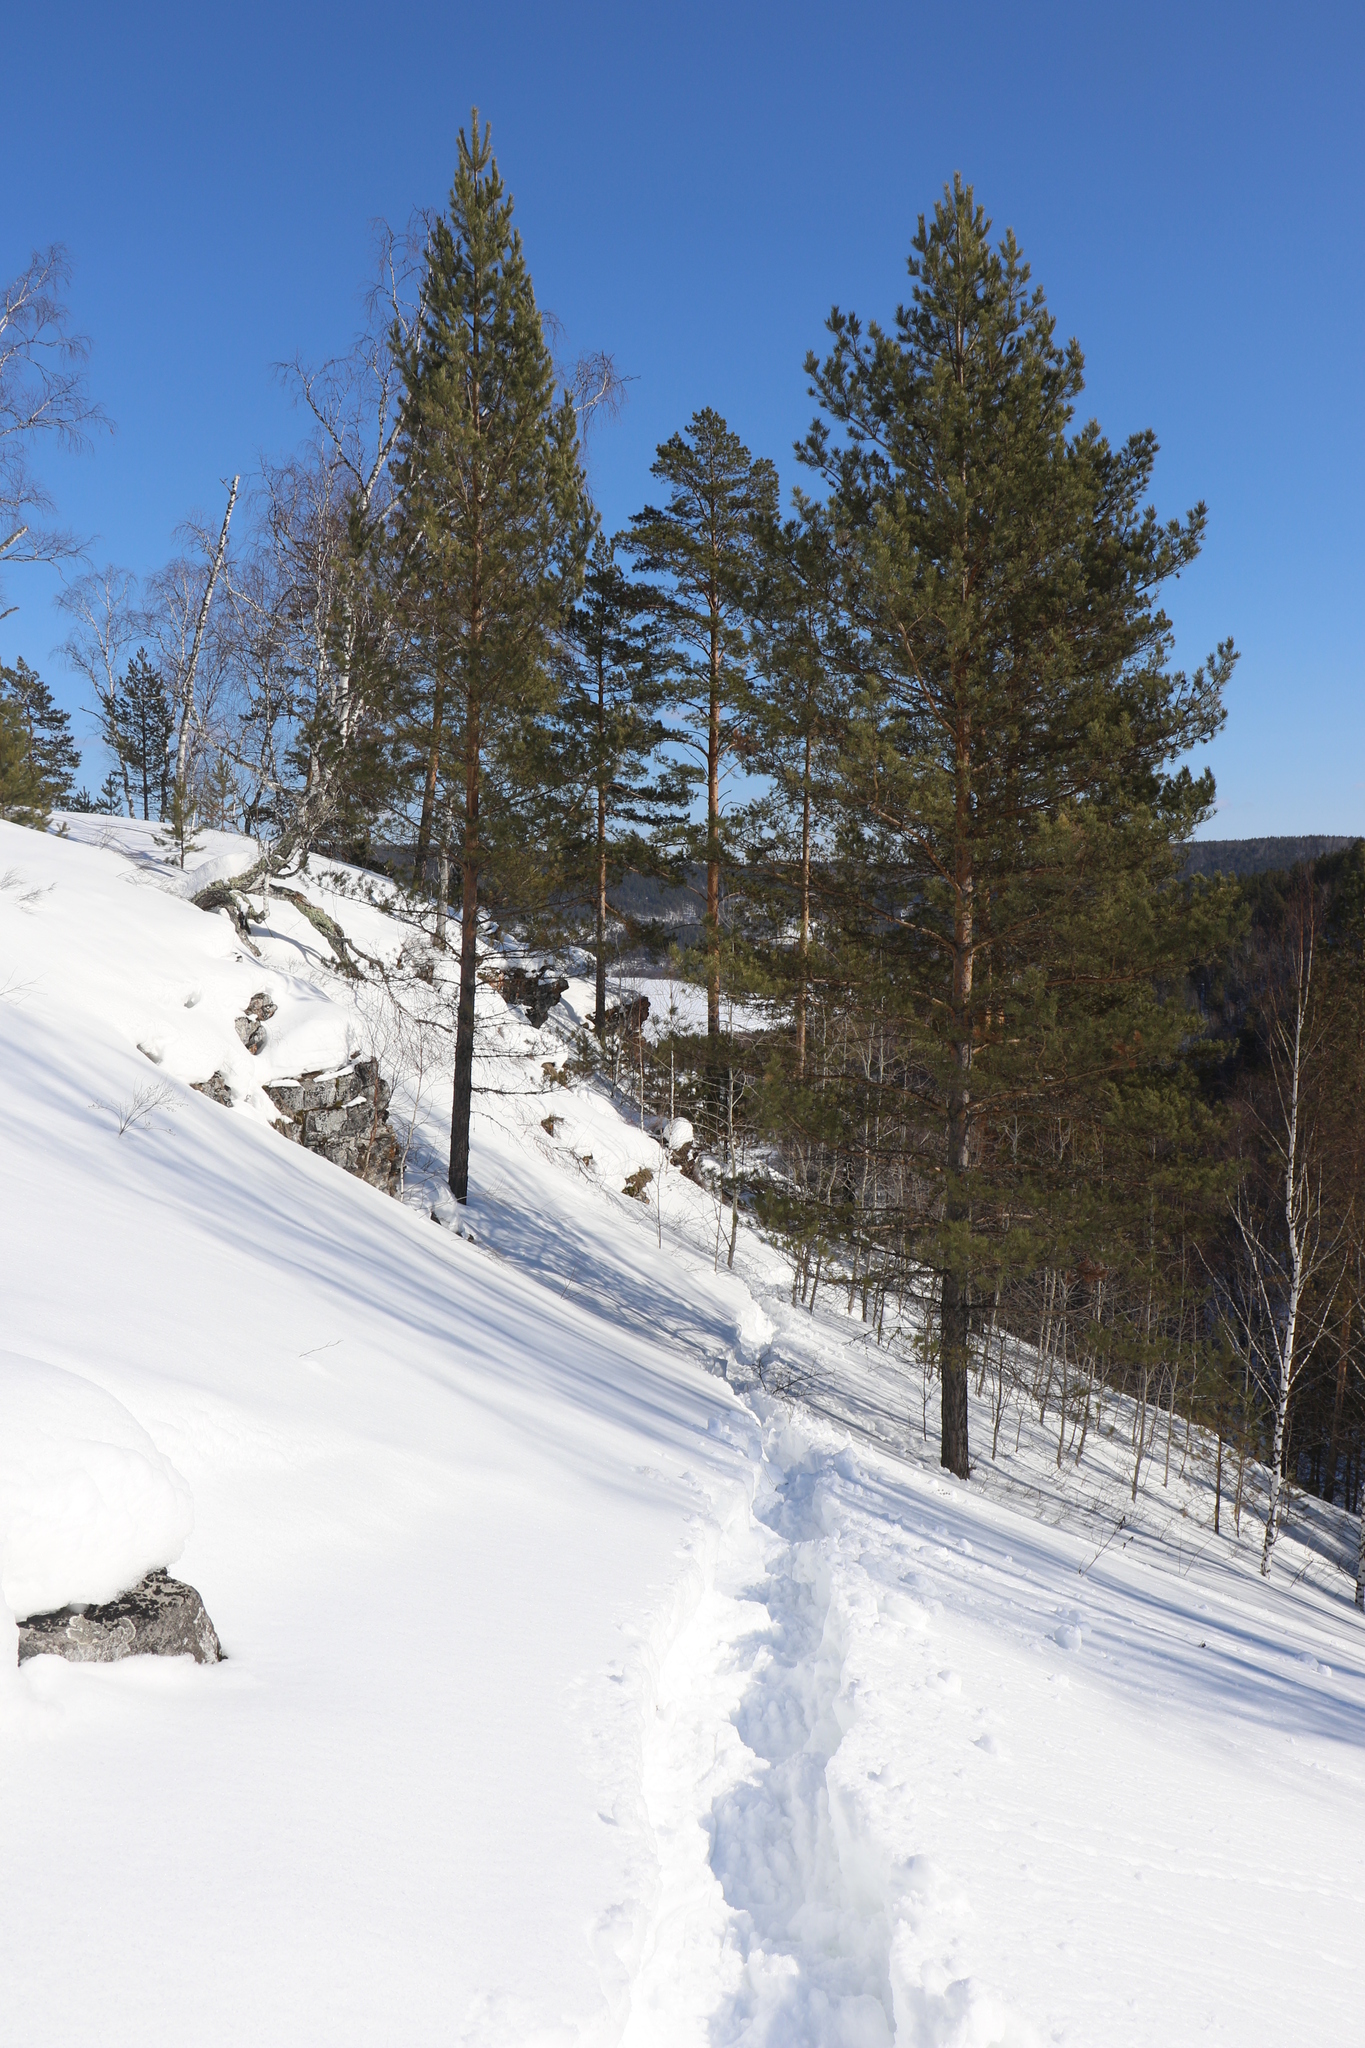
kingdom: Plantae
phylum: Tracheophyta
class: Pinopsida
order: Pinales
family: Pinaceae
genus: Pinus
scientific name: Pinus sylvestris
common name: Scots pine
